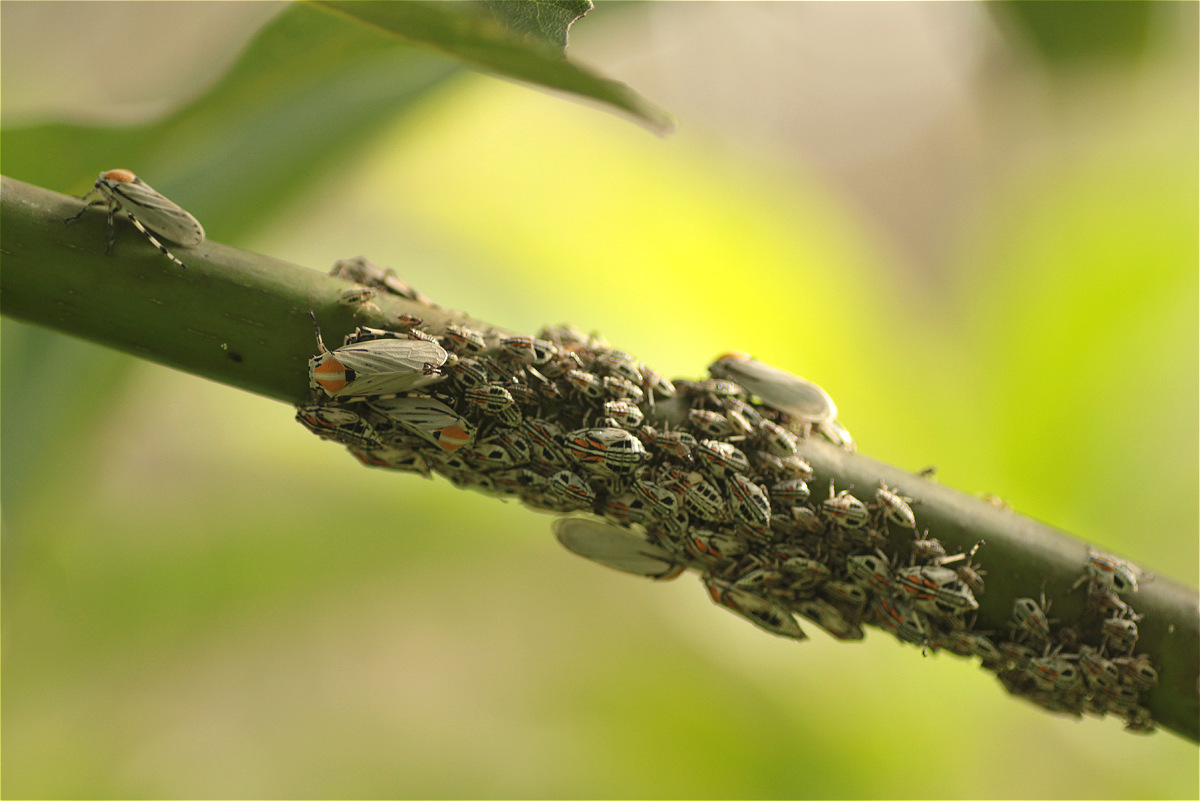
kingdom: Animalia
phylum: Arthropoda
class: Insecta
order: Hemiptera
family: Aetalionidae
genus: Aetalion
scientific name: Aetalion reticulatum
